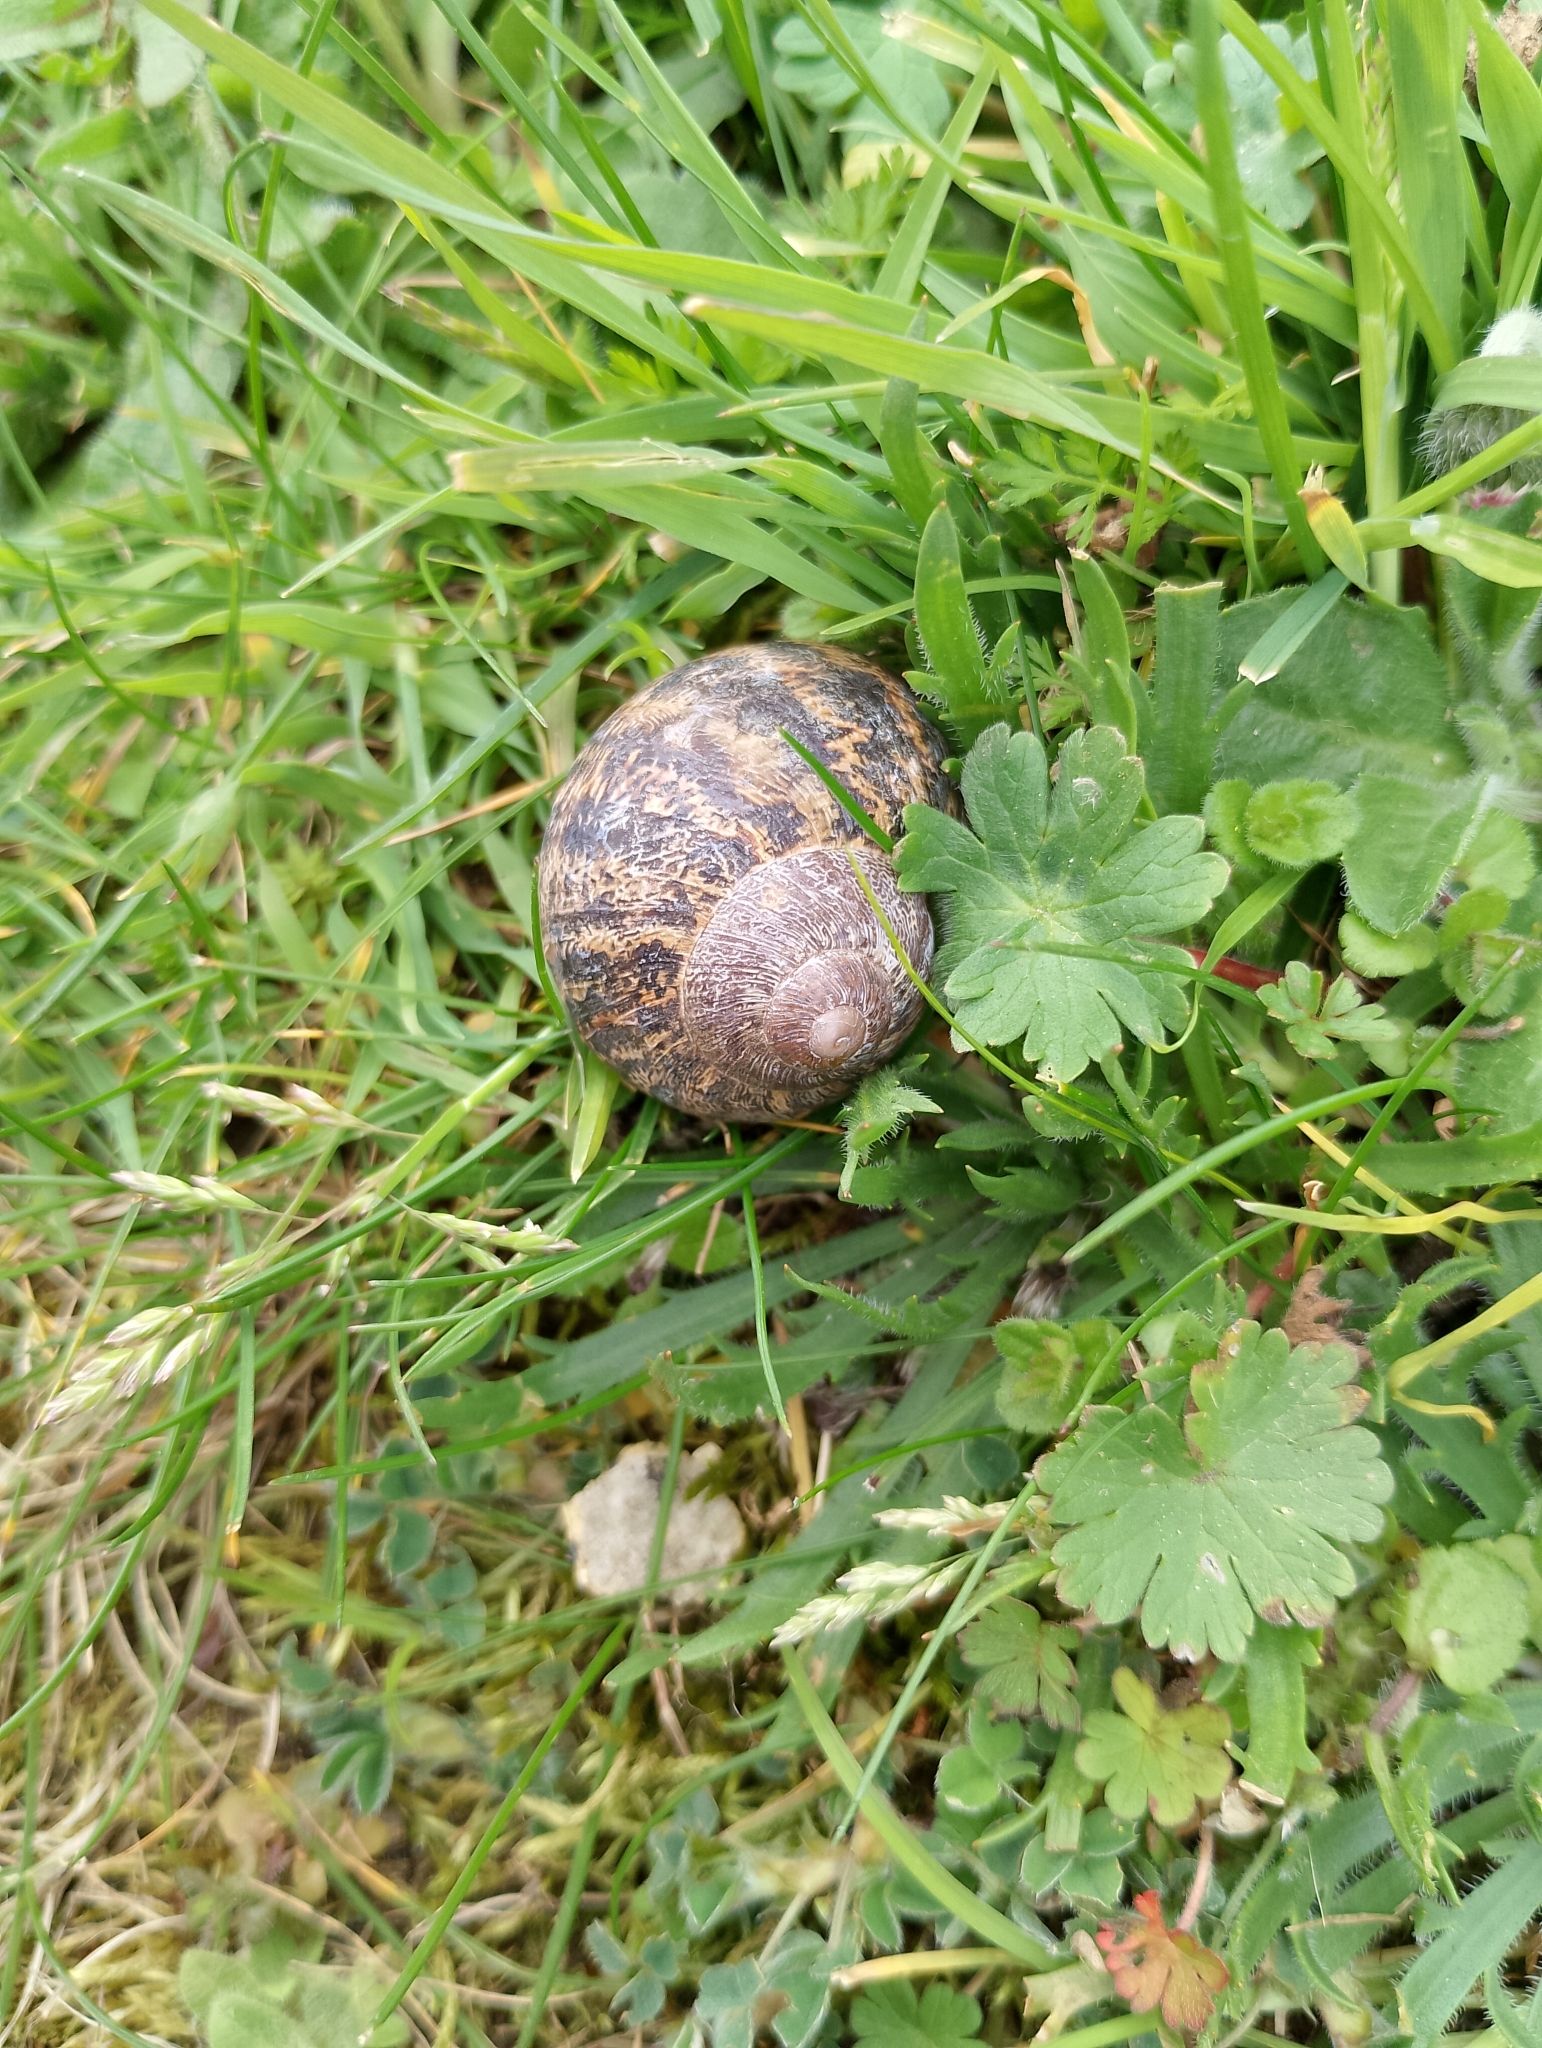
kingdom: Animalia
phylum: Mollusca
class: Gastropoda
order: Stylommatophora
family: Helicidae
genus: Cornu
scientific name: Cornu aspersum
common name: Brown garden snail
